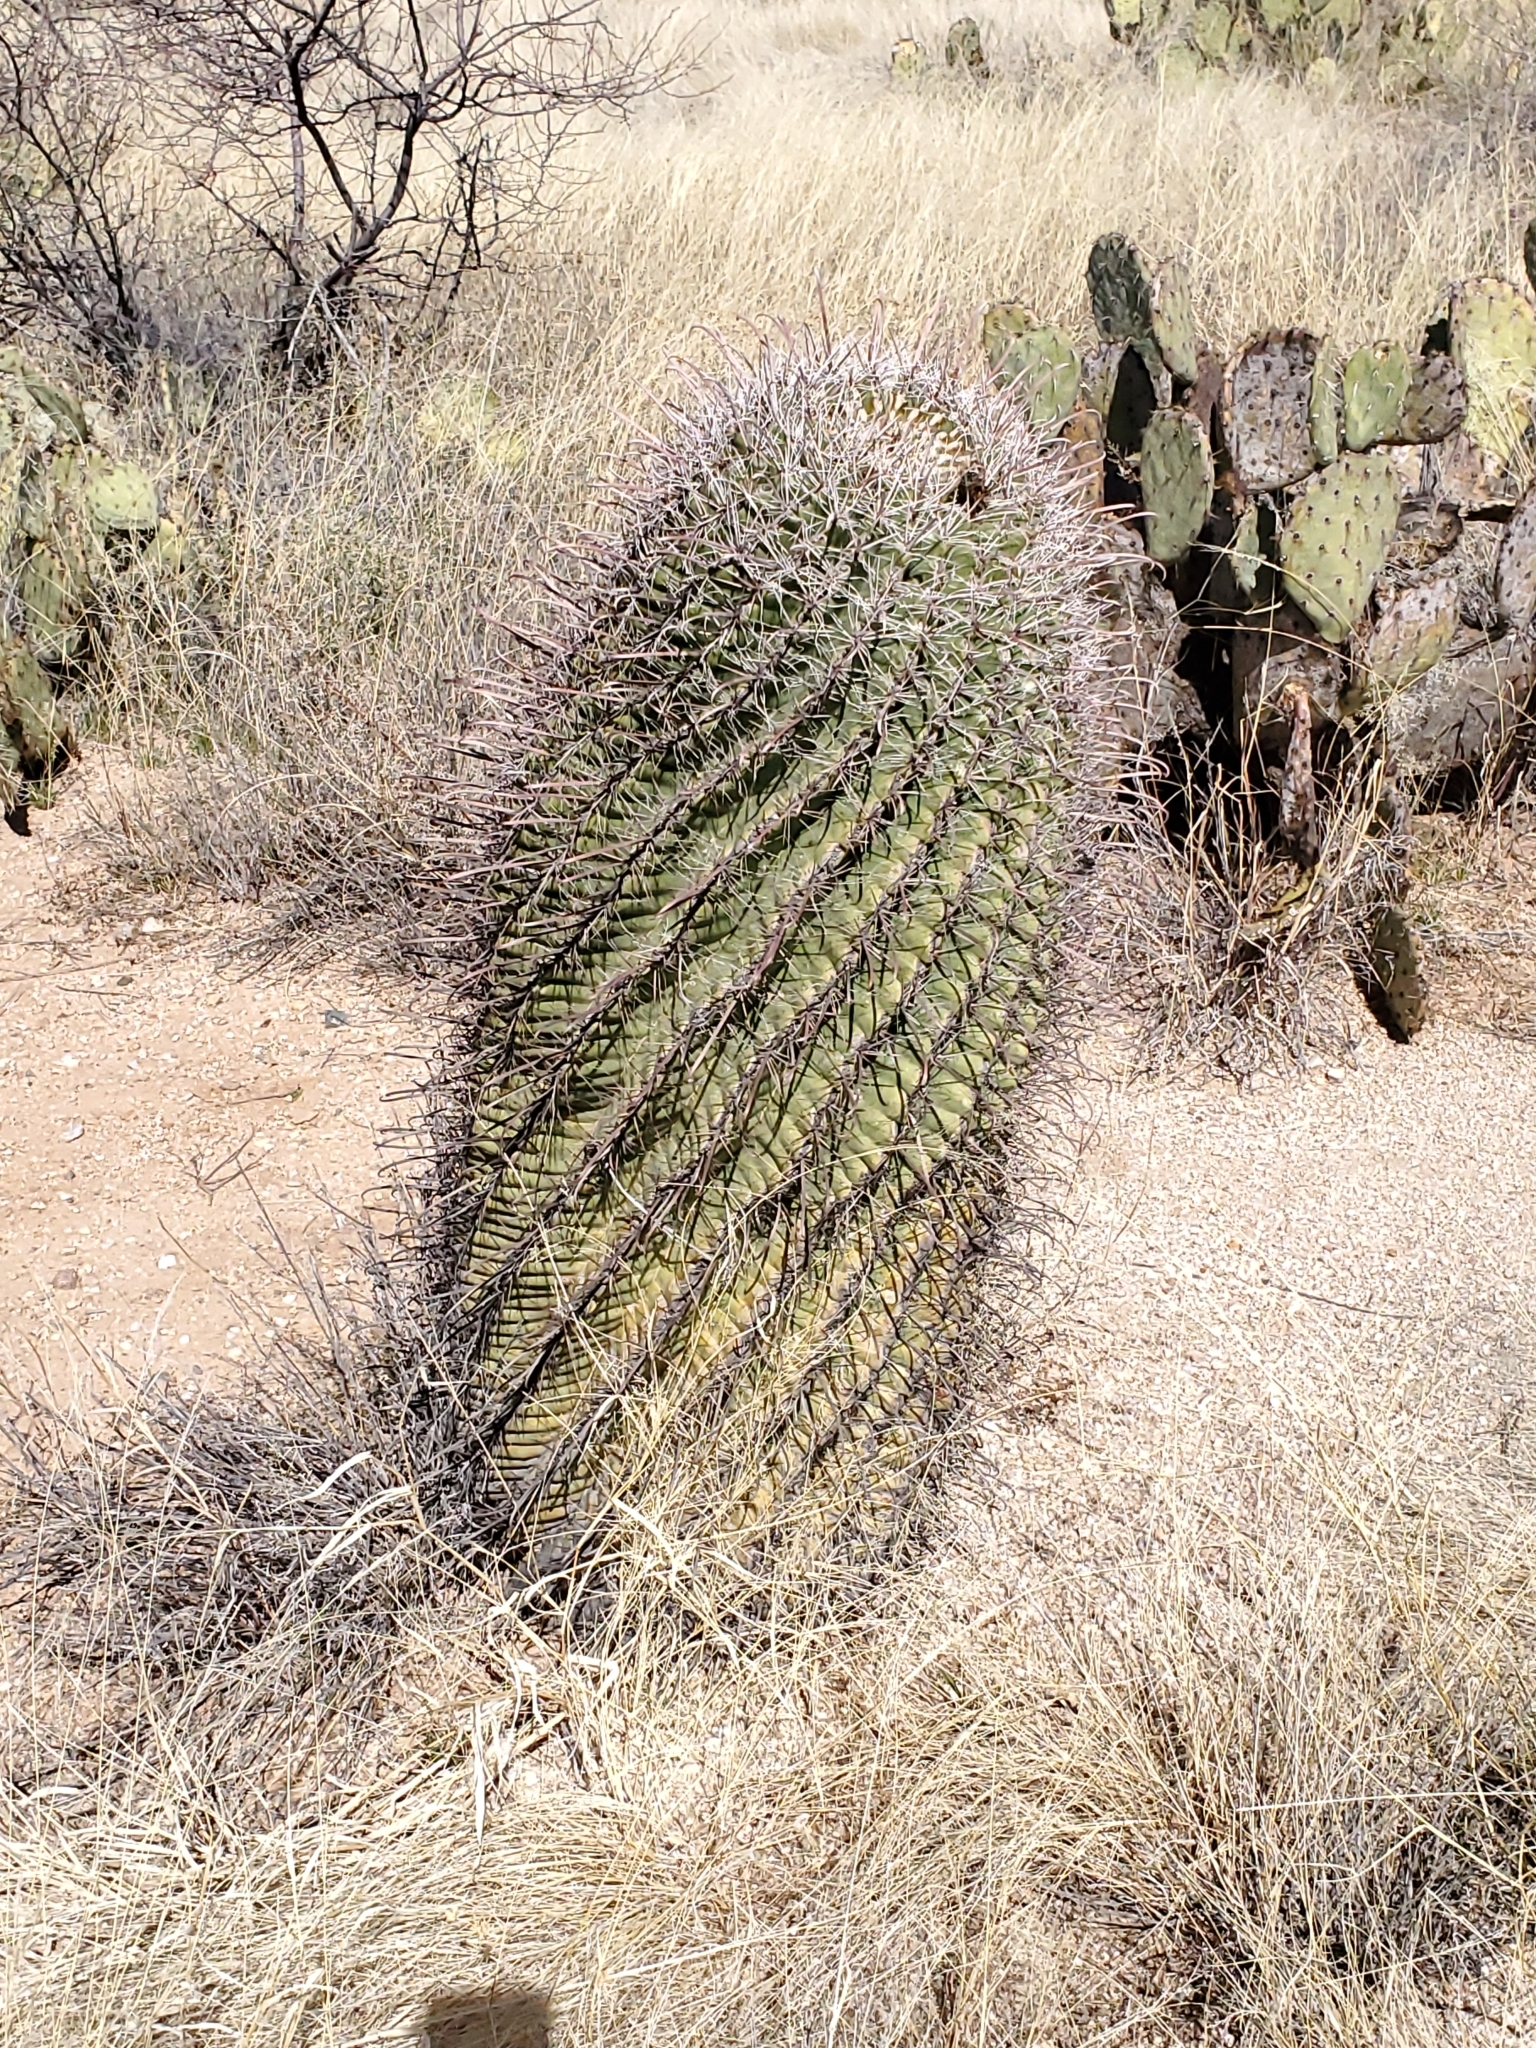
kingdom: Plantae
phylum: Tracheophyta
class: Magnoliopsida
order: Caryophyllales
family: Cactaceae
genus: Ferocactus
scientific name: Ferocactus wislizeni
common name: Candy barrel cactus
